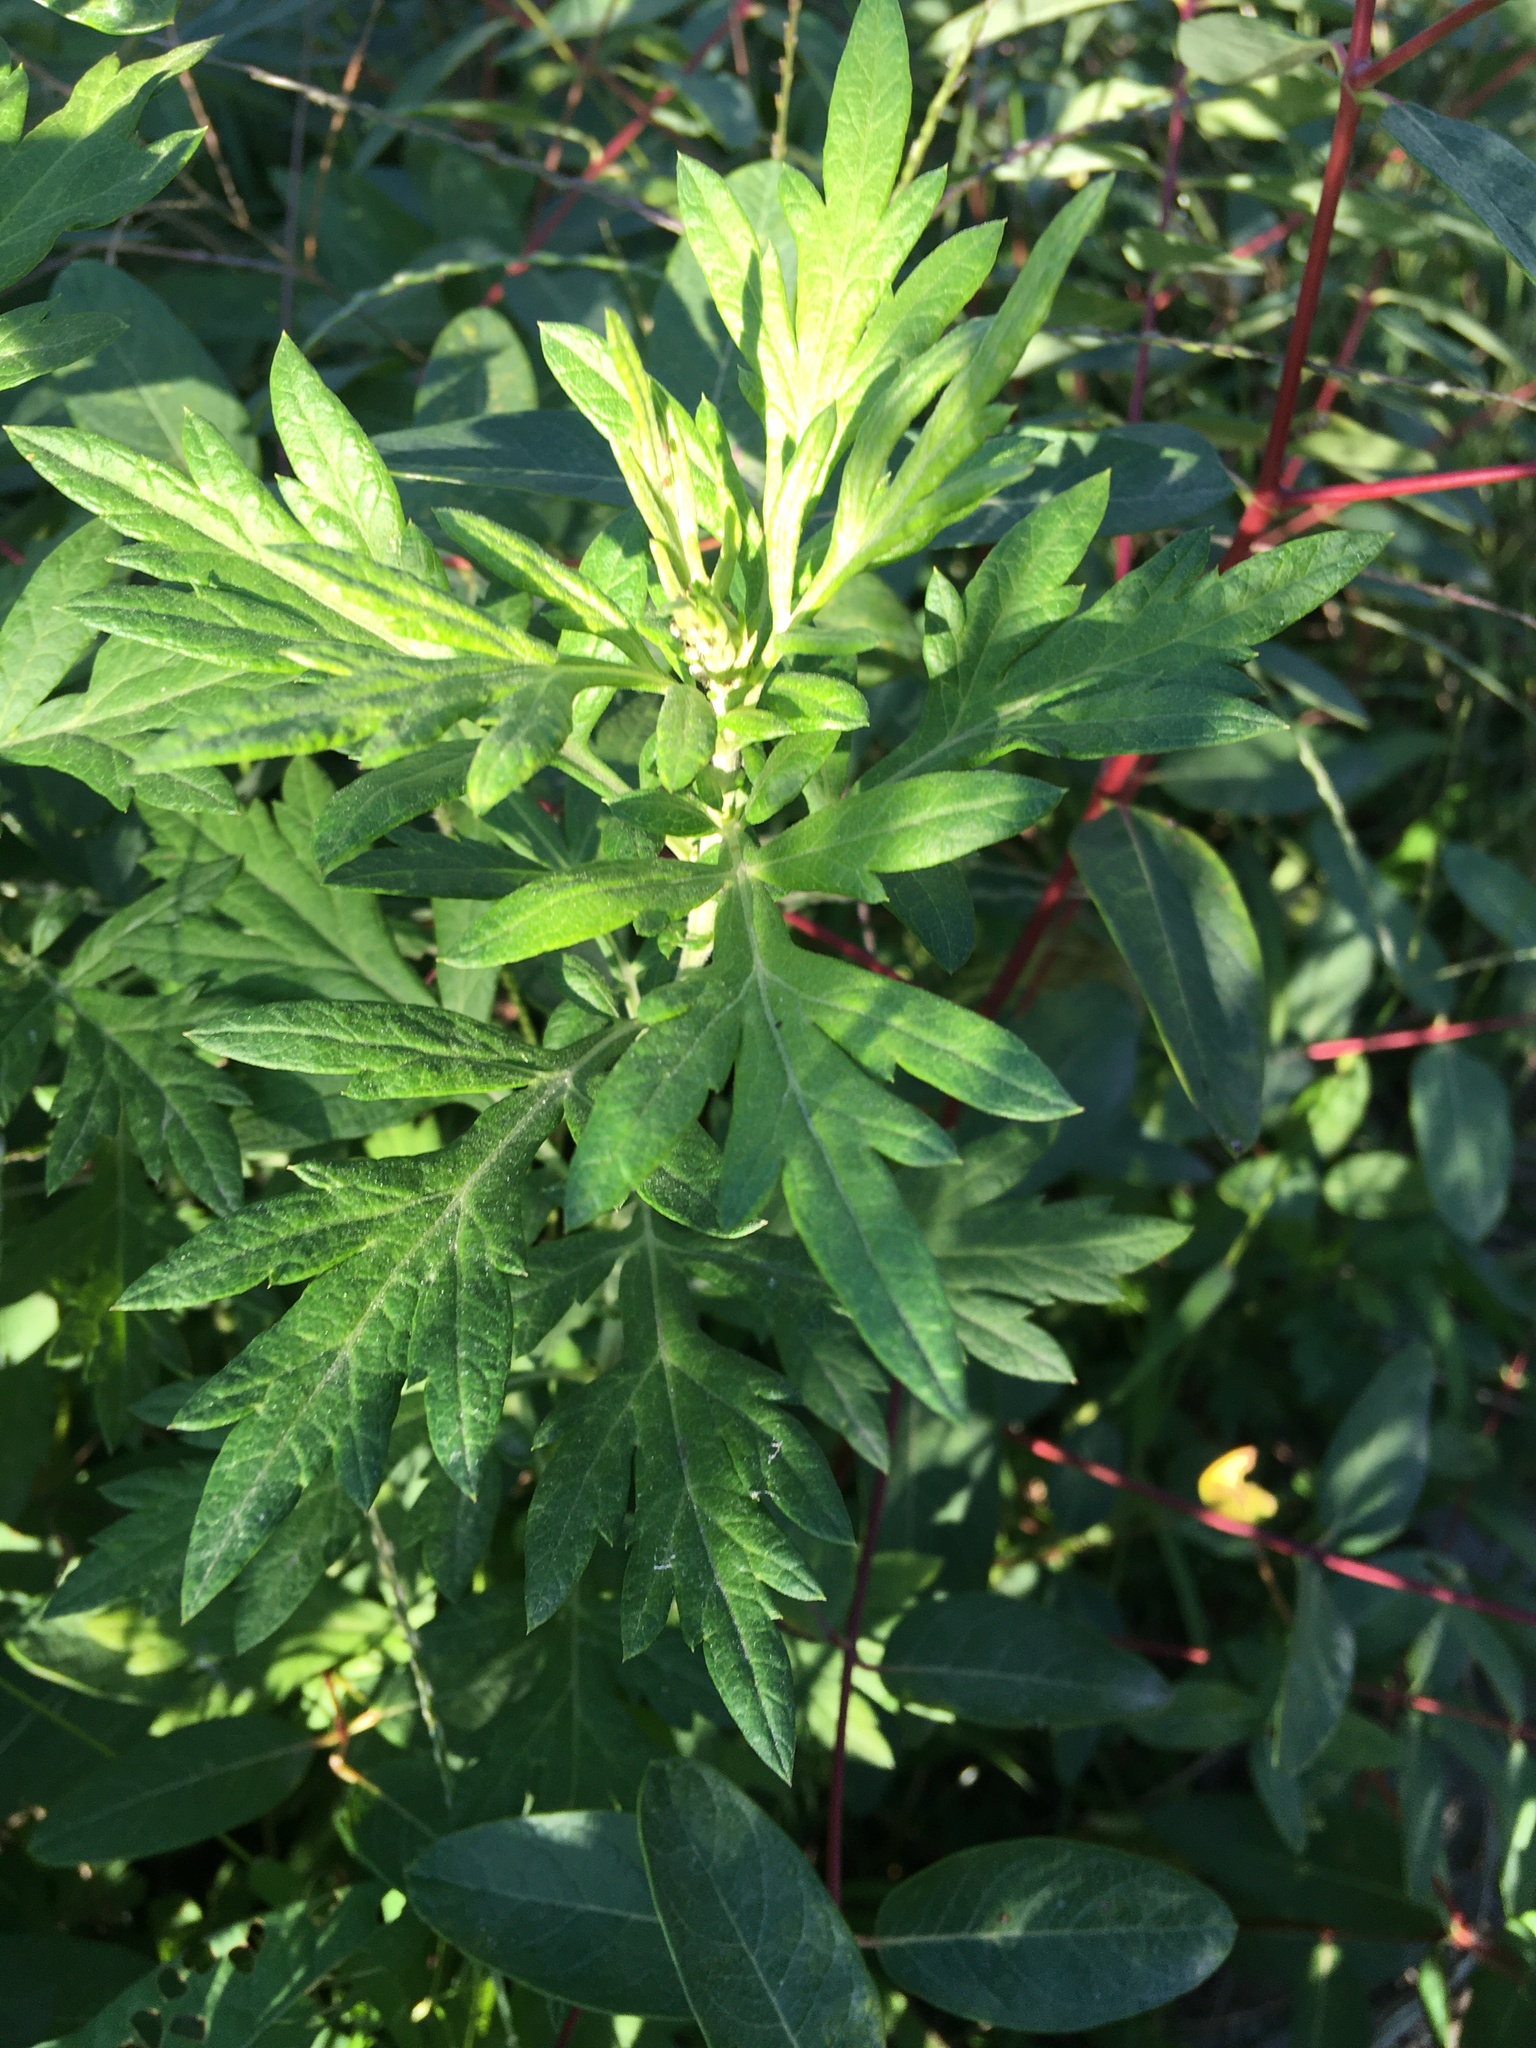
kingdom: Plantae
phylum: Tracheophyta
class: Magnoliopsida
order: Asterales
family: Asteraceae
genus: Artemisia
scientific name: Artemisia vulgaris
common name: Mugwort
